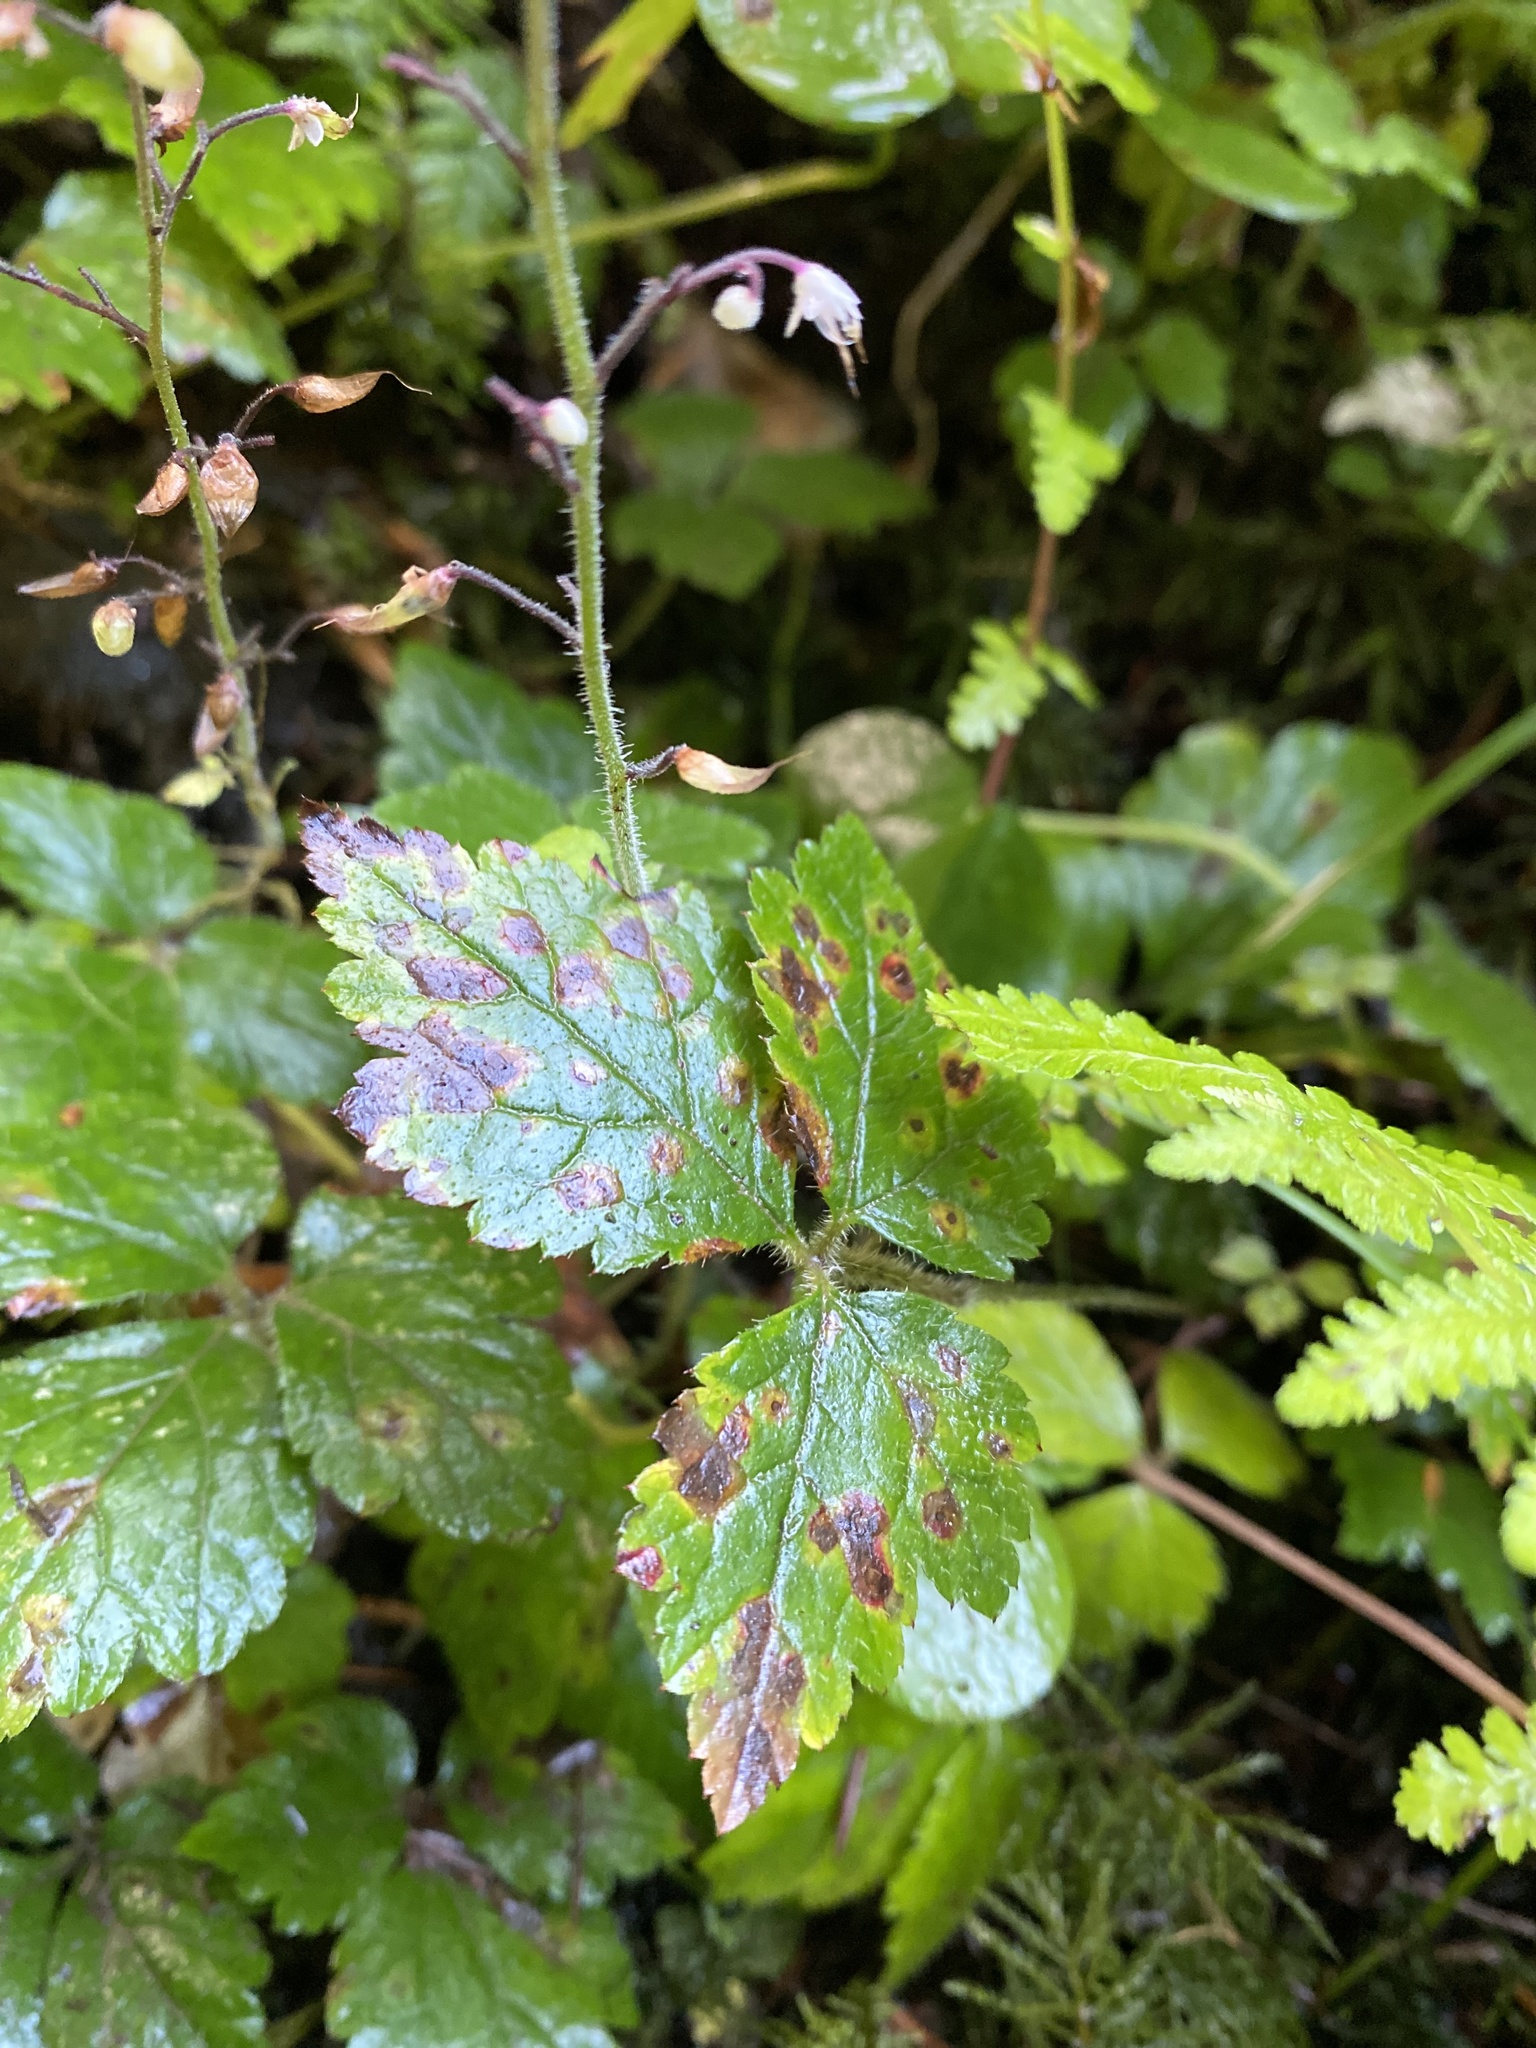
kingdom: Plantae
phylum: Tracheophyta
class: Magnoliopsida
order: Saxifragales
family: Saxifragaceae
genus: Tiarella
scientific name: Tiarella trifoliata
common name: Sugar-scoop
